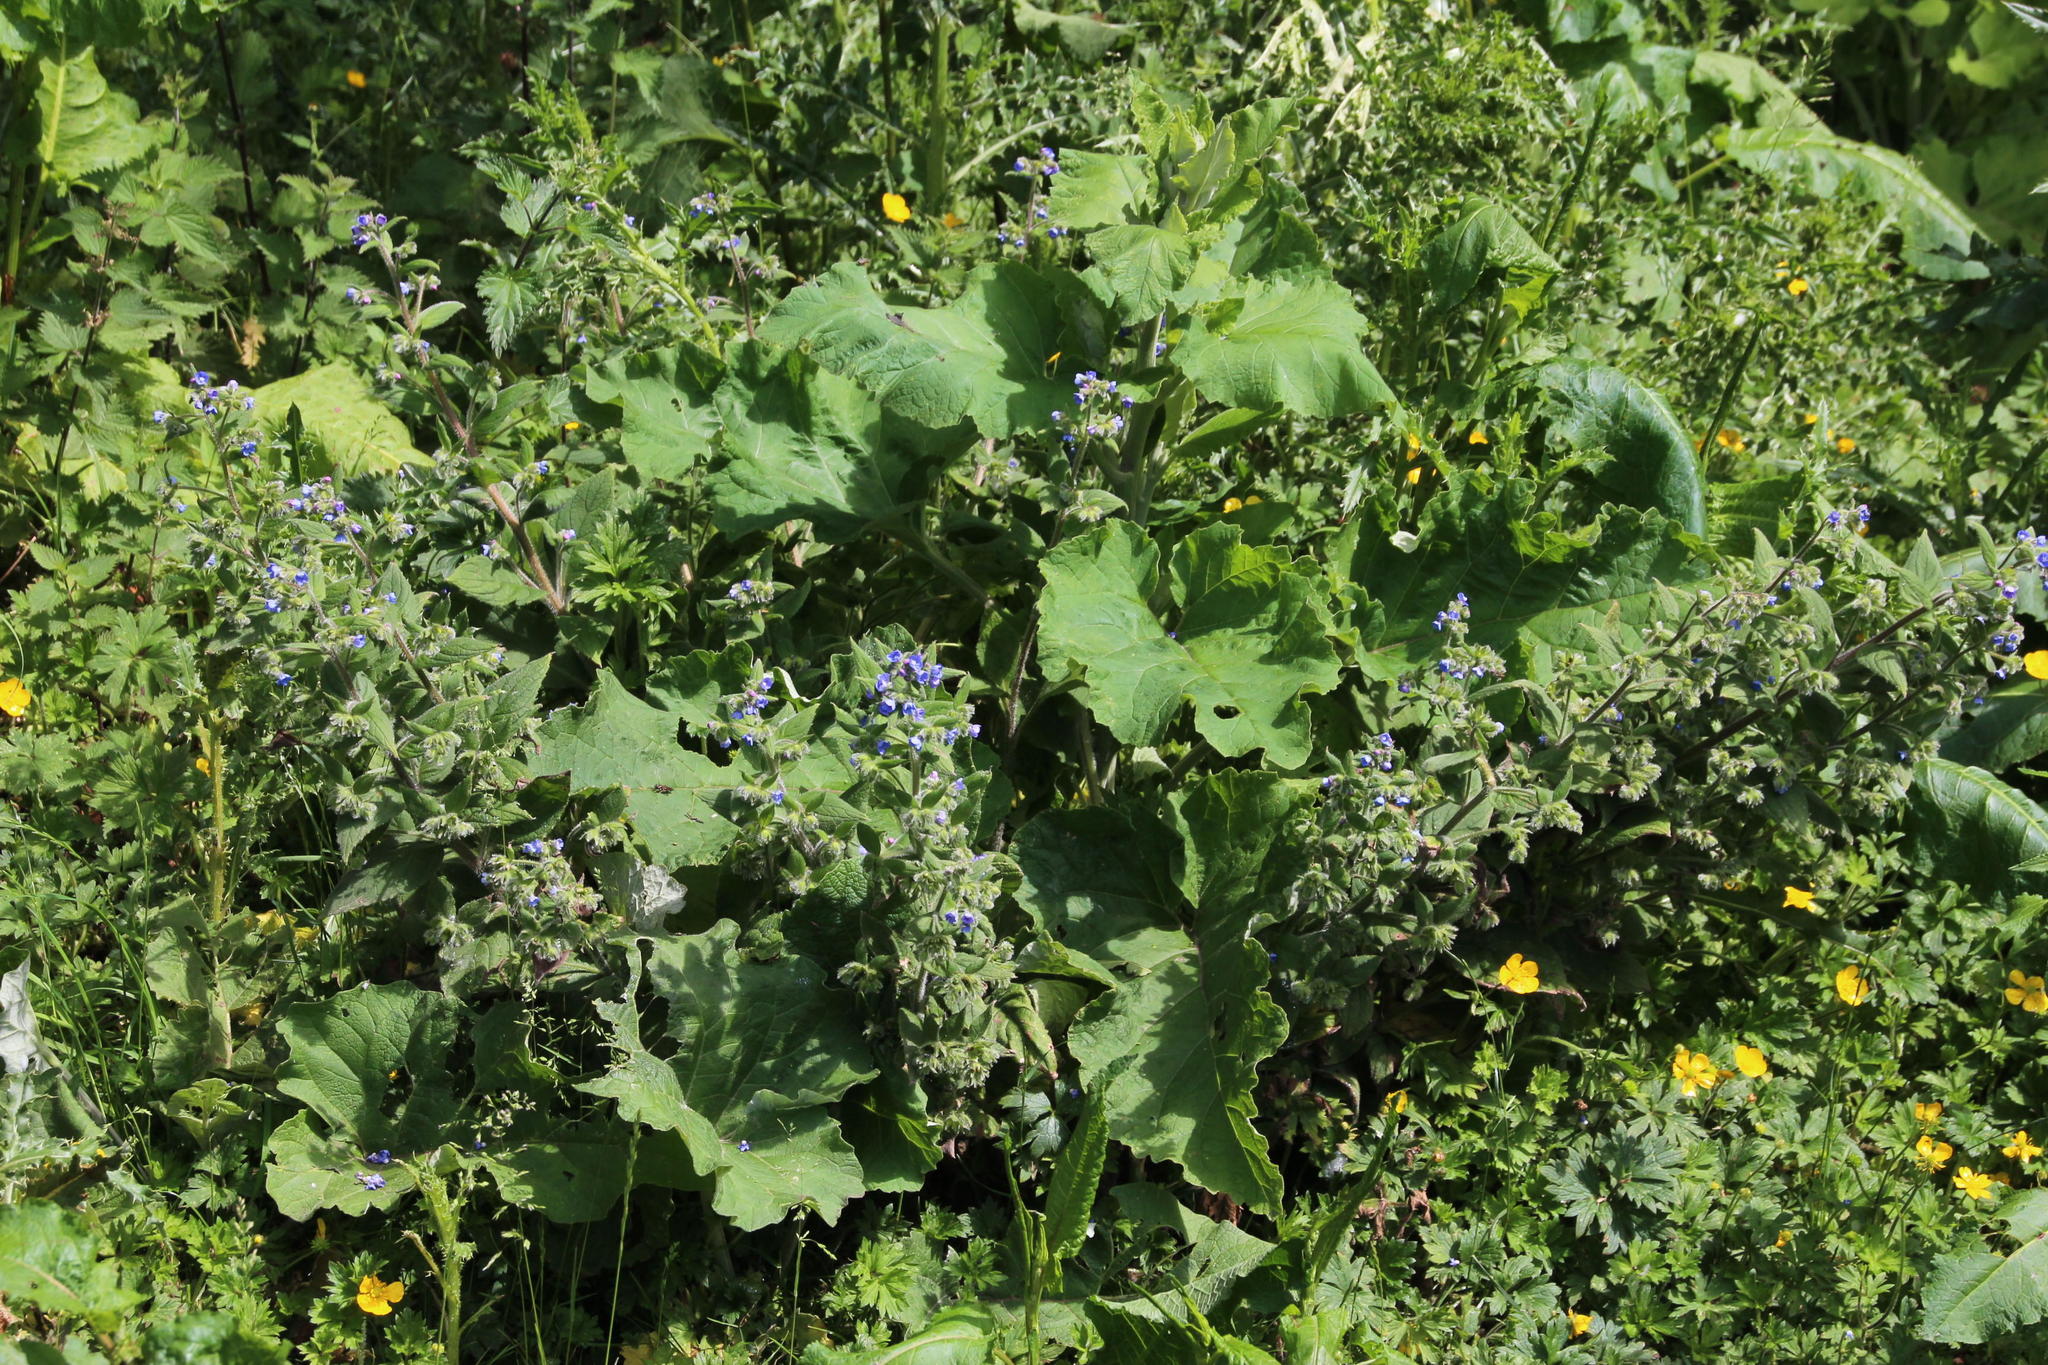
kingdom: Plantae
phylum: Tracheophyta
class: Magnoliopsida
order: Boraginales
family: Boraginaceae
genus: Pentaglottis
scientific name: Pentaglottis sempervirens
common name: Green alkanet
